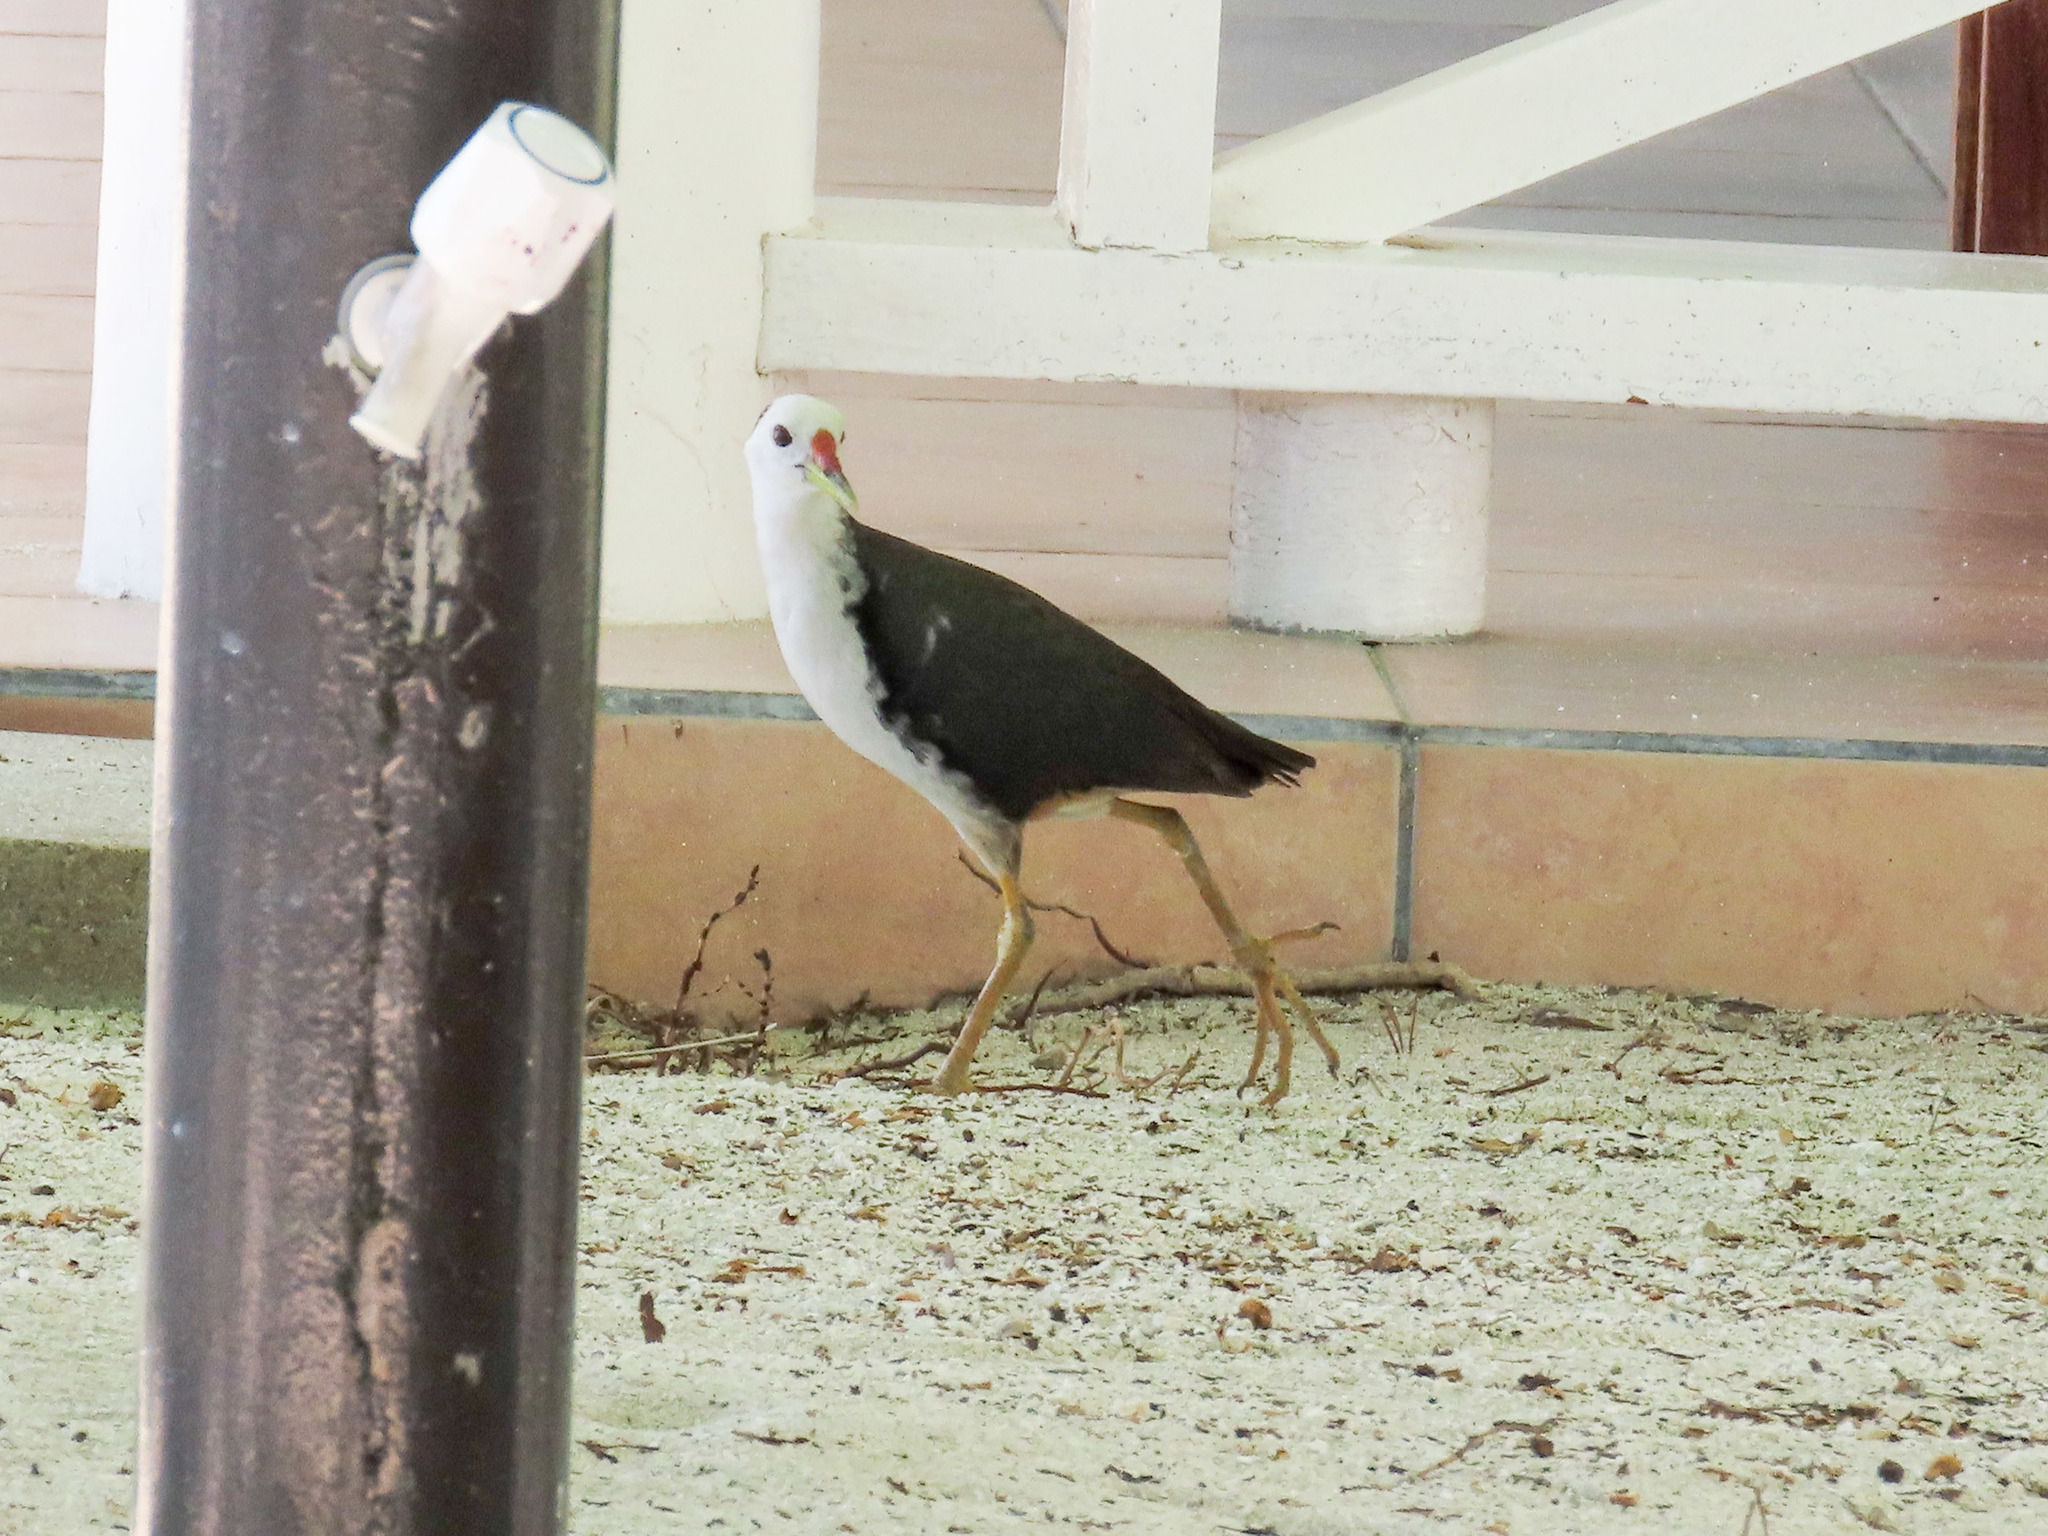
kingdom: Animalia
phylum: Chordata
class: Aves
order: Gruiformes
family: Rallidae
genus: Amaurornis
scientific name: Amaurornis phoenicurus
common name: White-breasted waterhen
